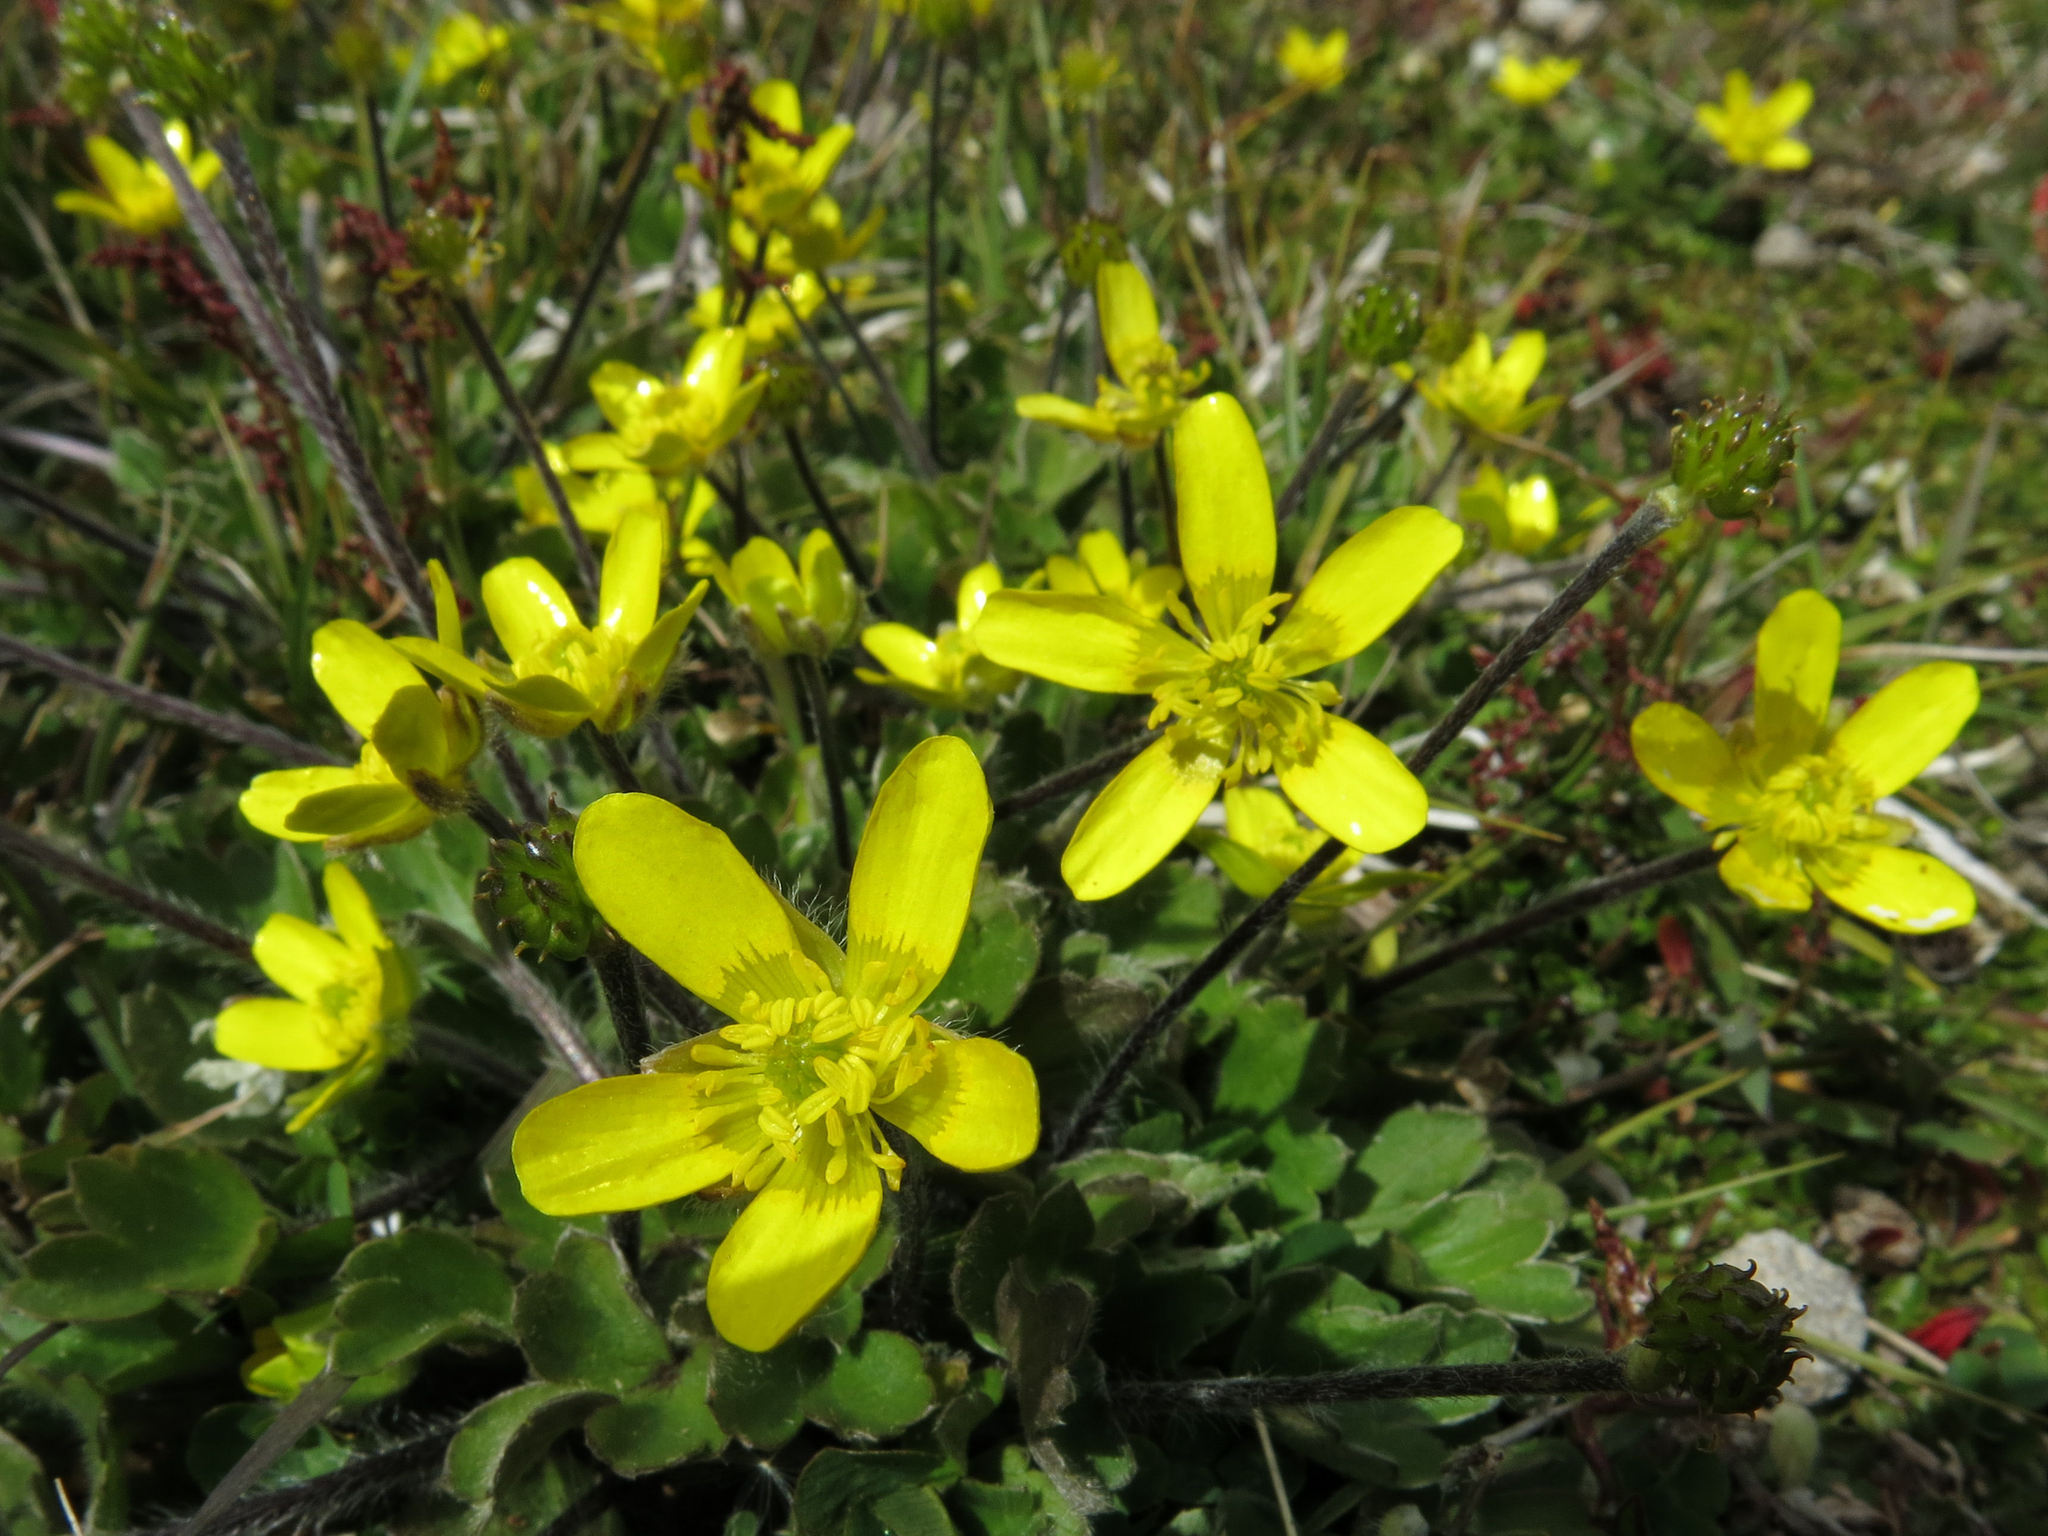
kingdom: Plantae
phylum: Tracheophyta
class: Magnoliopsida
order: Ranunculales
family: Ranunculaceae
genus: Ranunculus
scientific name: Ranunculus multiscapus
